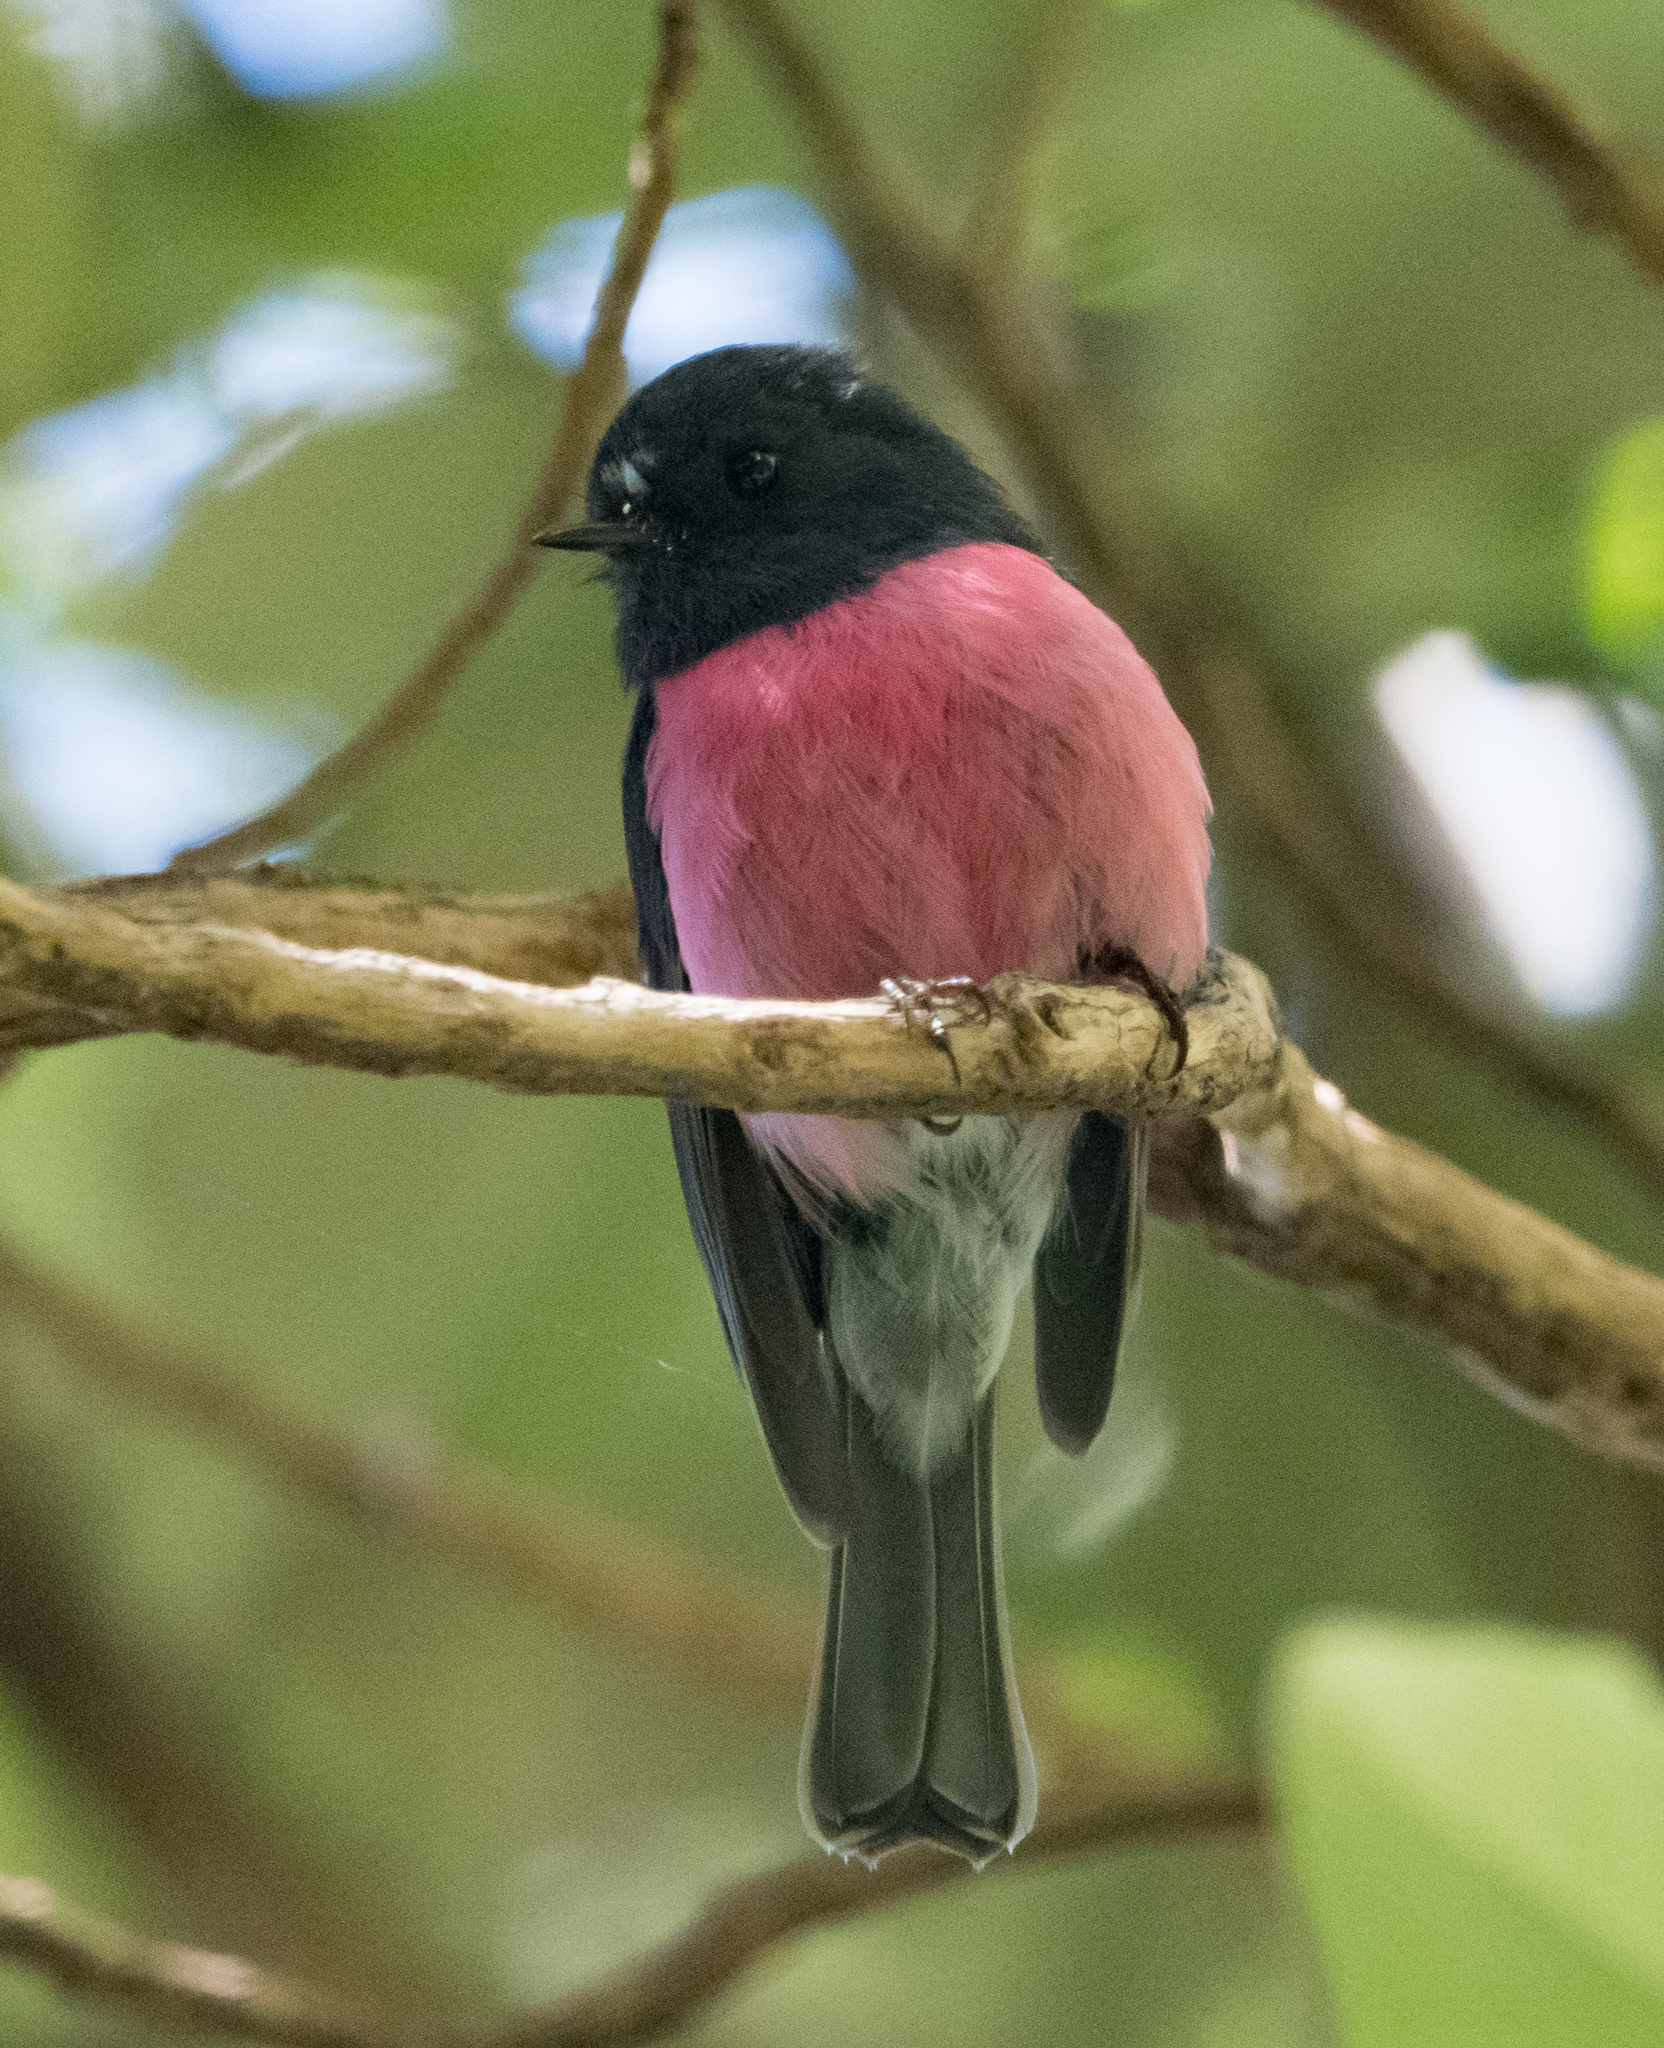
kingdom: Animalia
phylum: Chordata
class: Aves
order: Passeriformes
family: Petroicidae
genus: Petroica
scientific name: Petroica rodinogaster
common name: Pink robin
